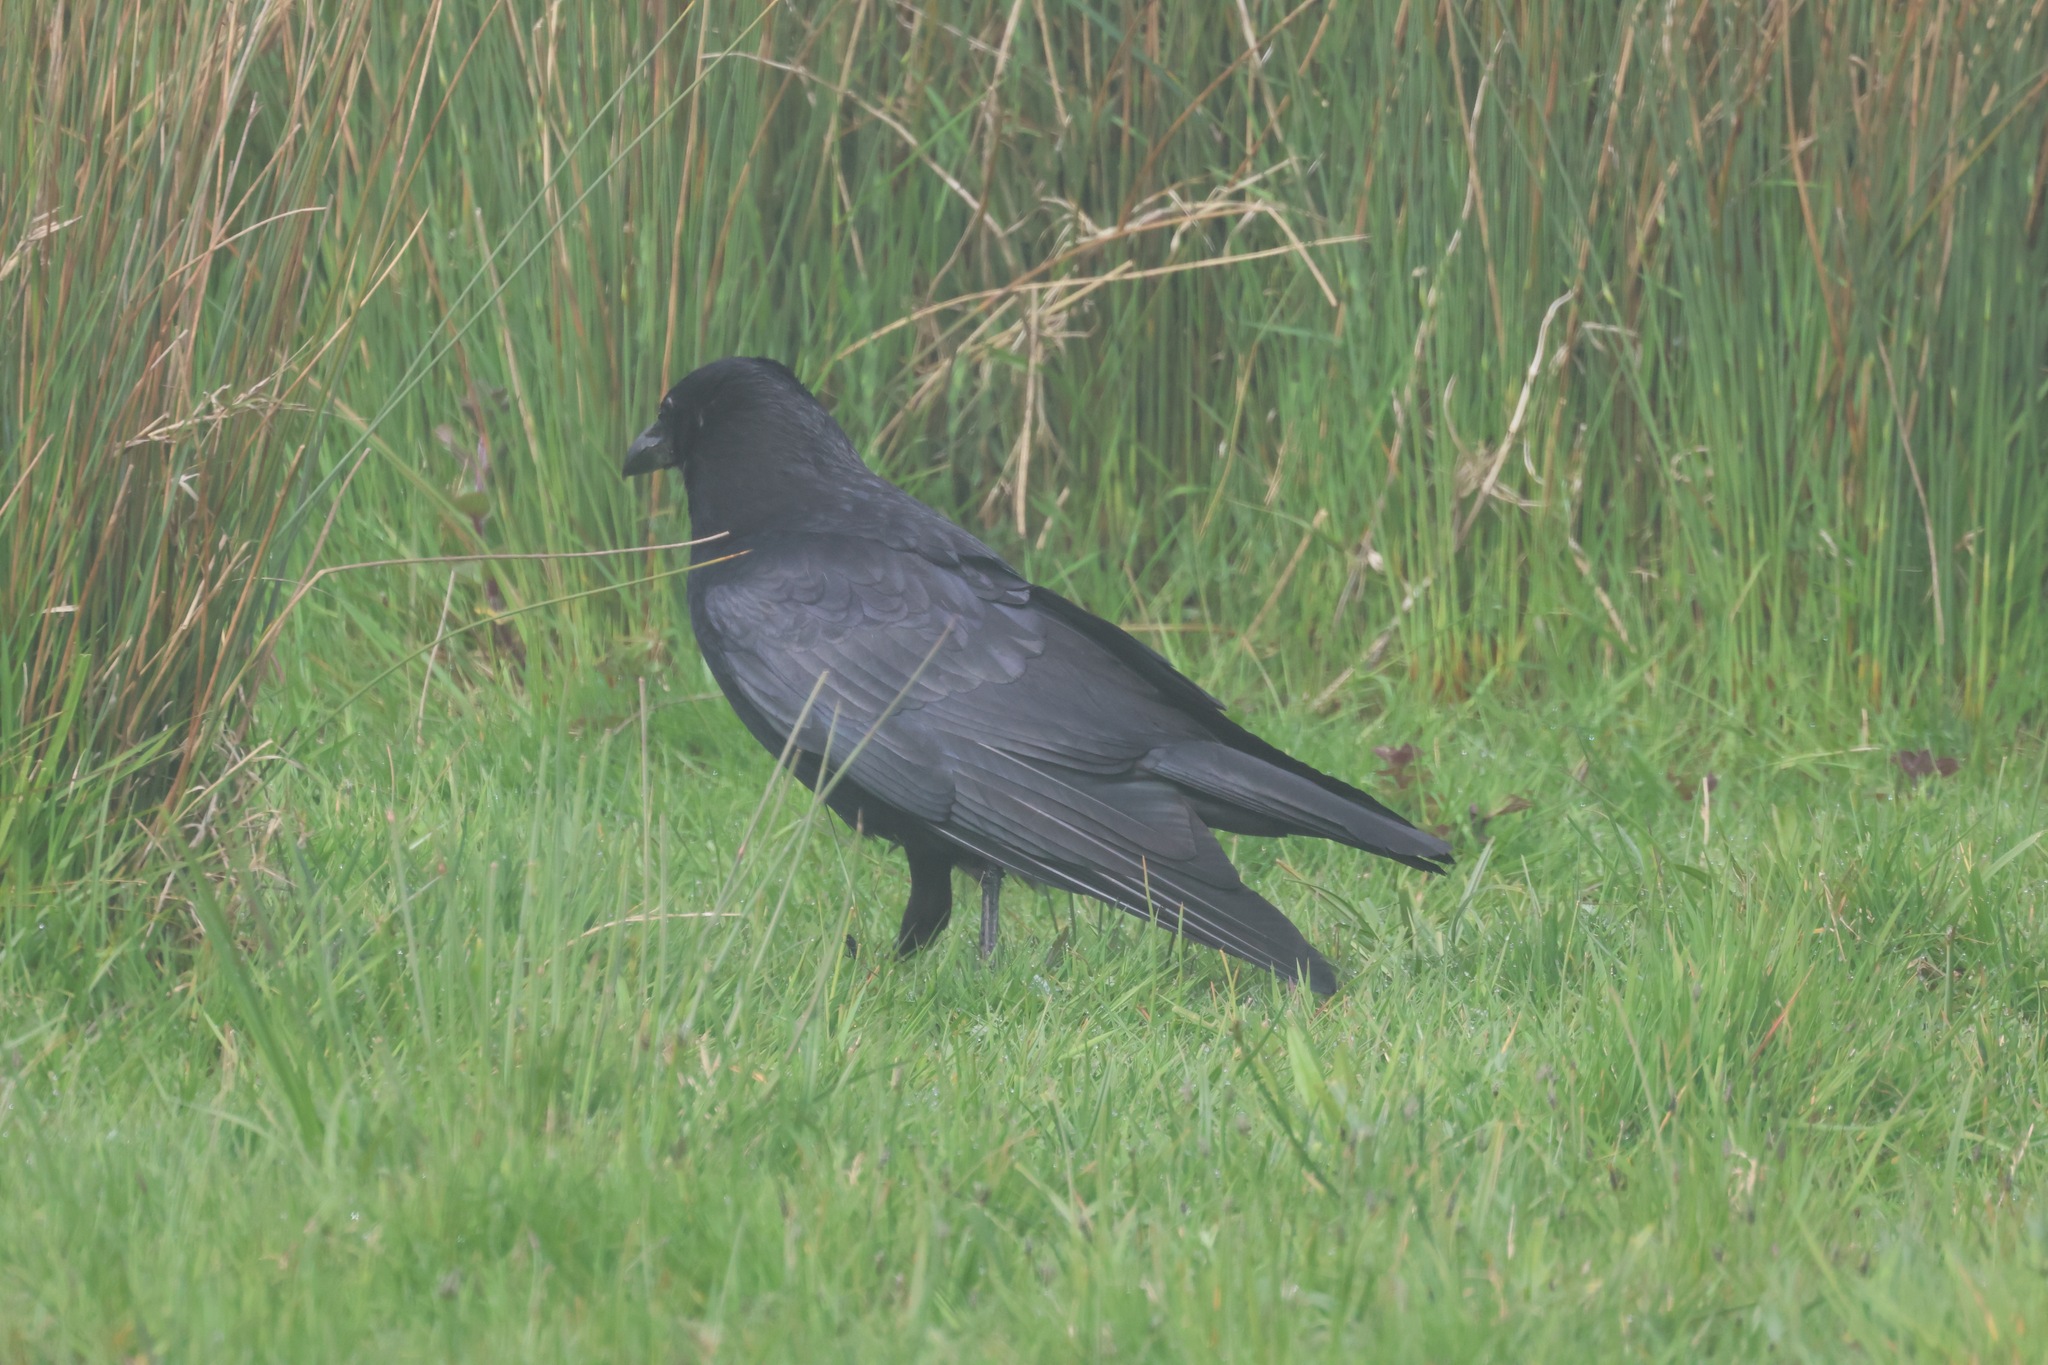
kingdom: Animalia
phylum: Chordata
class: Aves
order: Passeriformes
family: Corvidae
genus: Corvus
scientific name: Corvus corone
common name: Carrion crow
